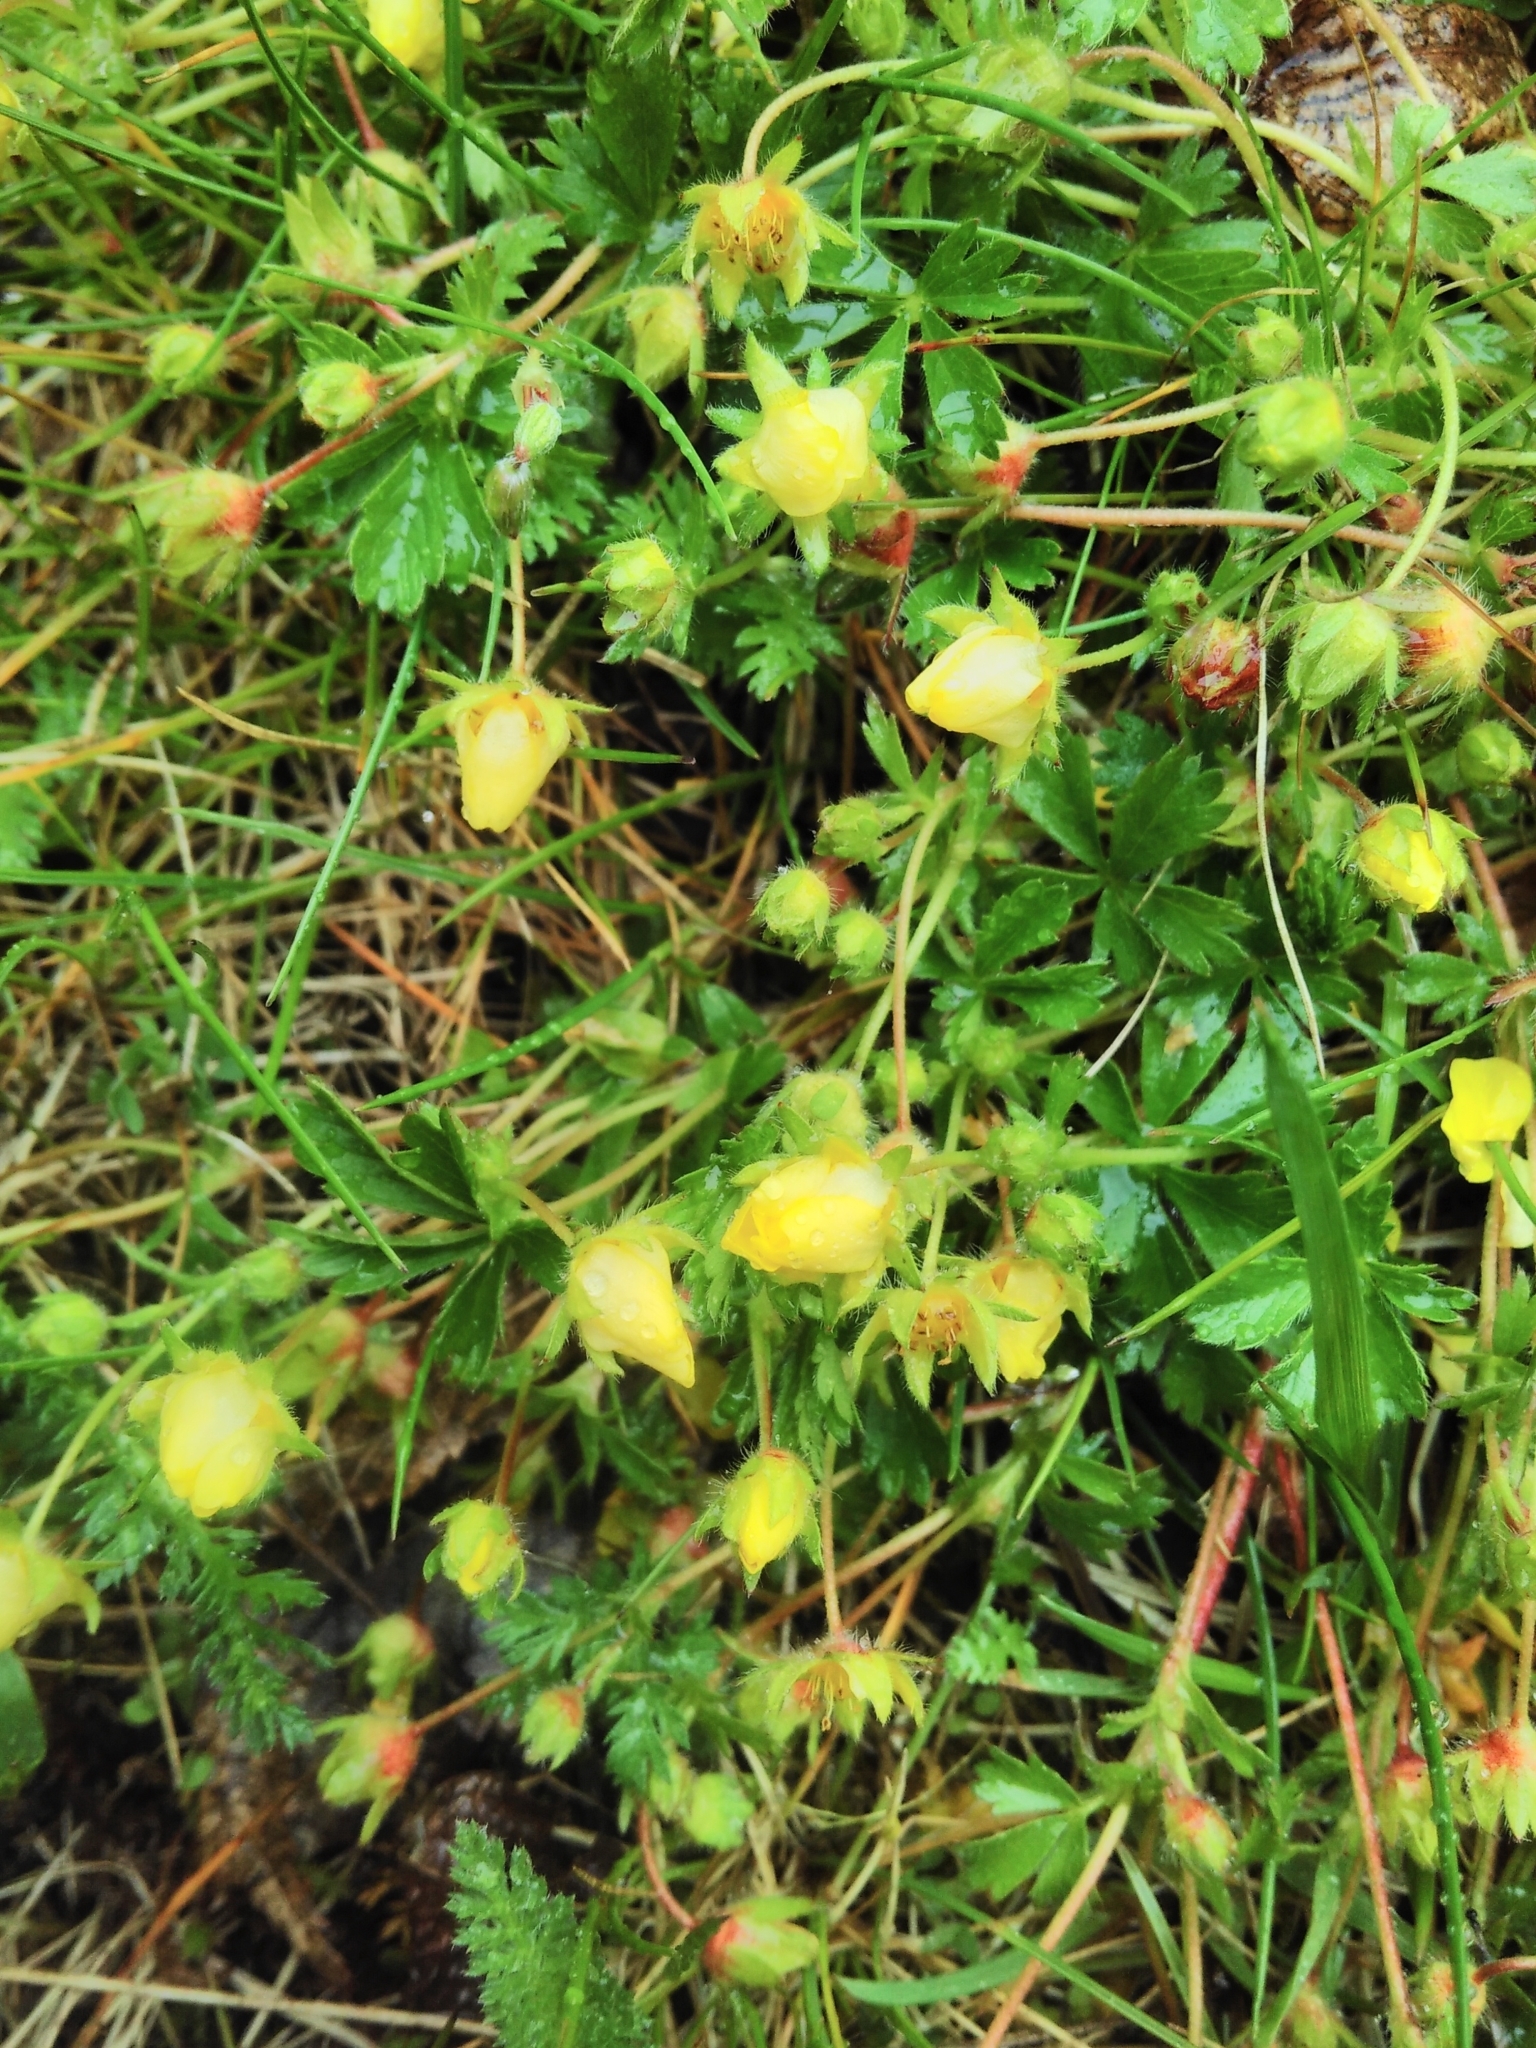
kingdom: Plantae
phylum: Tracheophyta
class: Magnoliopsida
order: Rosales
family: Rosaceae
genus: Potentilla
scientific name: Potentilla verna
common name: Spring cinquefoil
